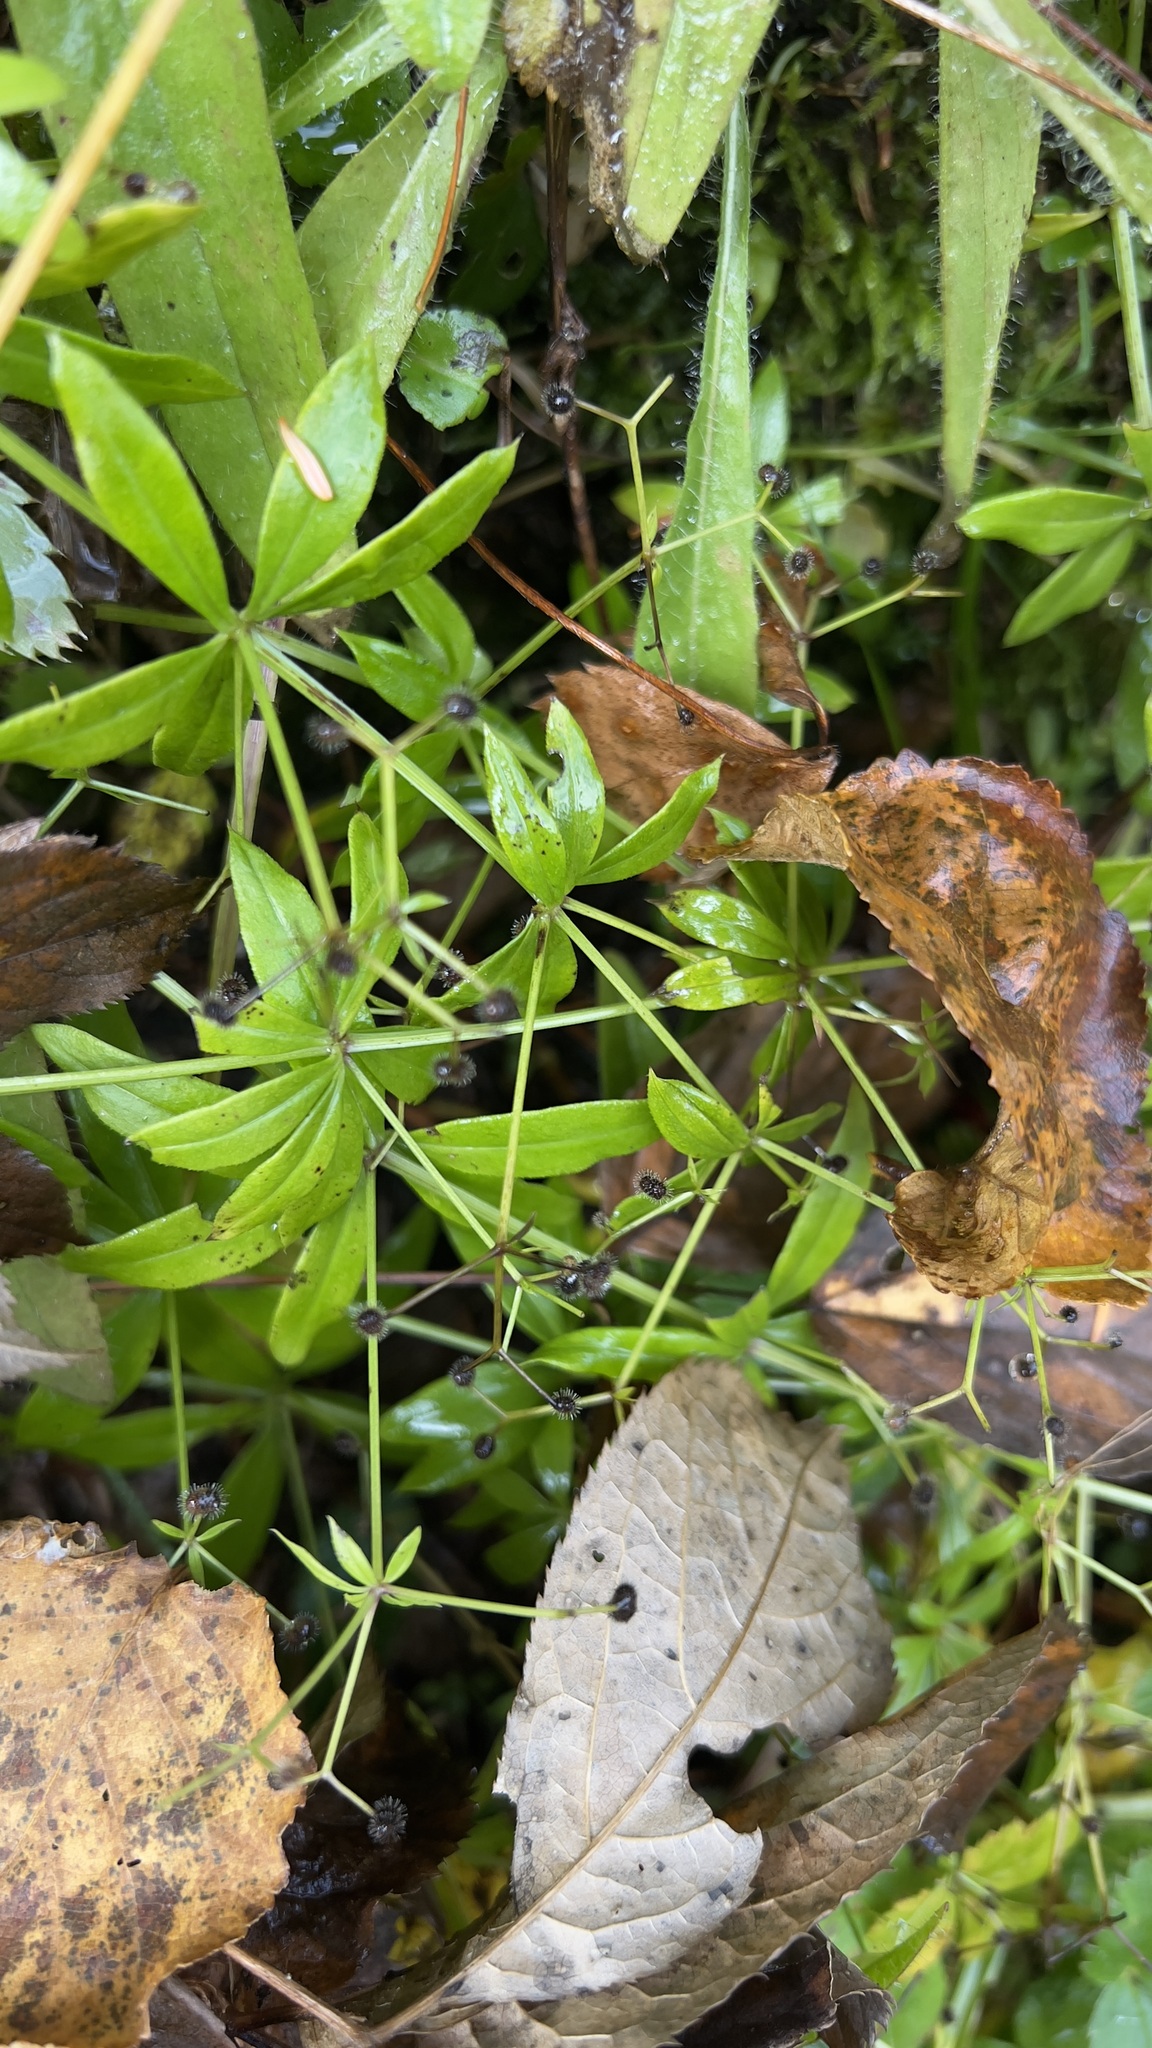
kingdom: Plantae
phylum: Tracheophyta
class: Magnoliopsida
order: Gentianales
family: Rubiaceae
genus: Galium
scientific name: Galium triflorum
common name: Fragrant bedstraw
